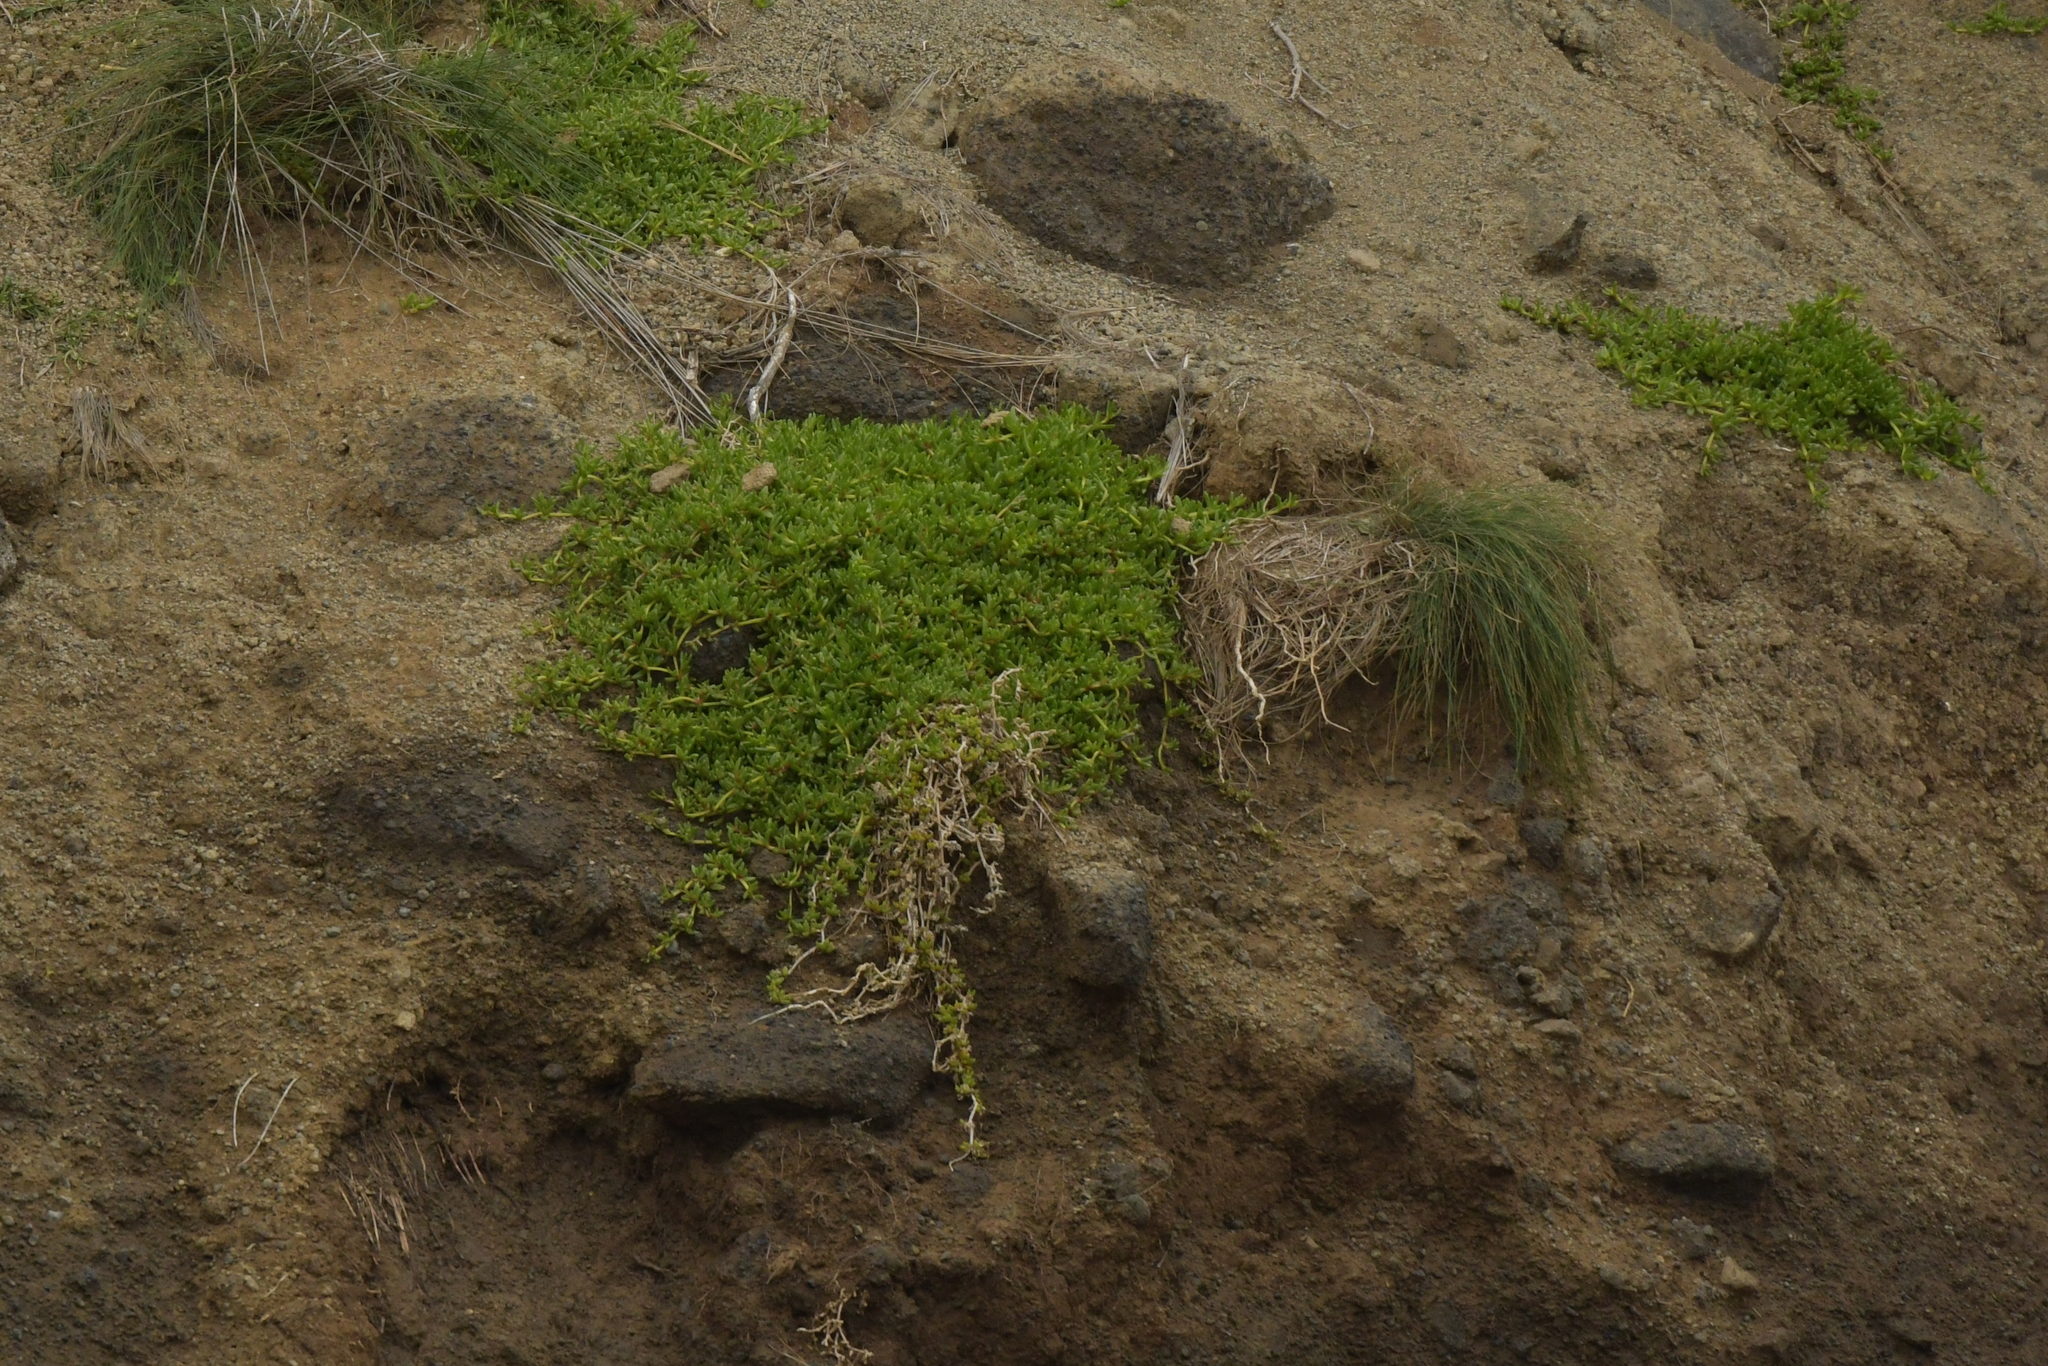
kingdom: Plantae
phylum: Tracheophyta
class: Magnoliopsida
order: Caryophyllales
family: Aizoaceae
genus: Disphyma
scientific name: Disphyma papillatum
